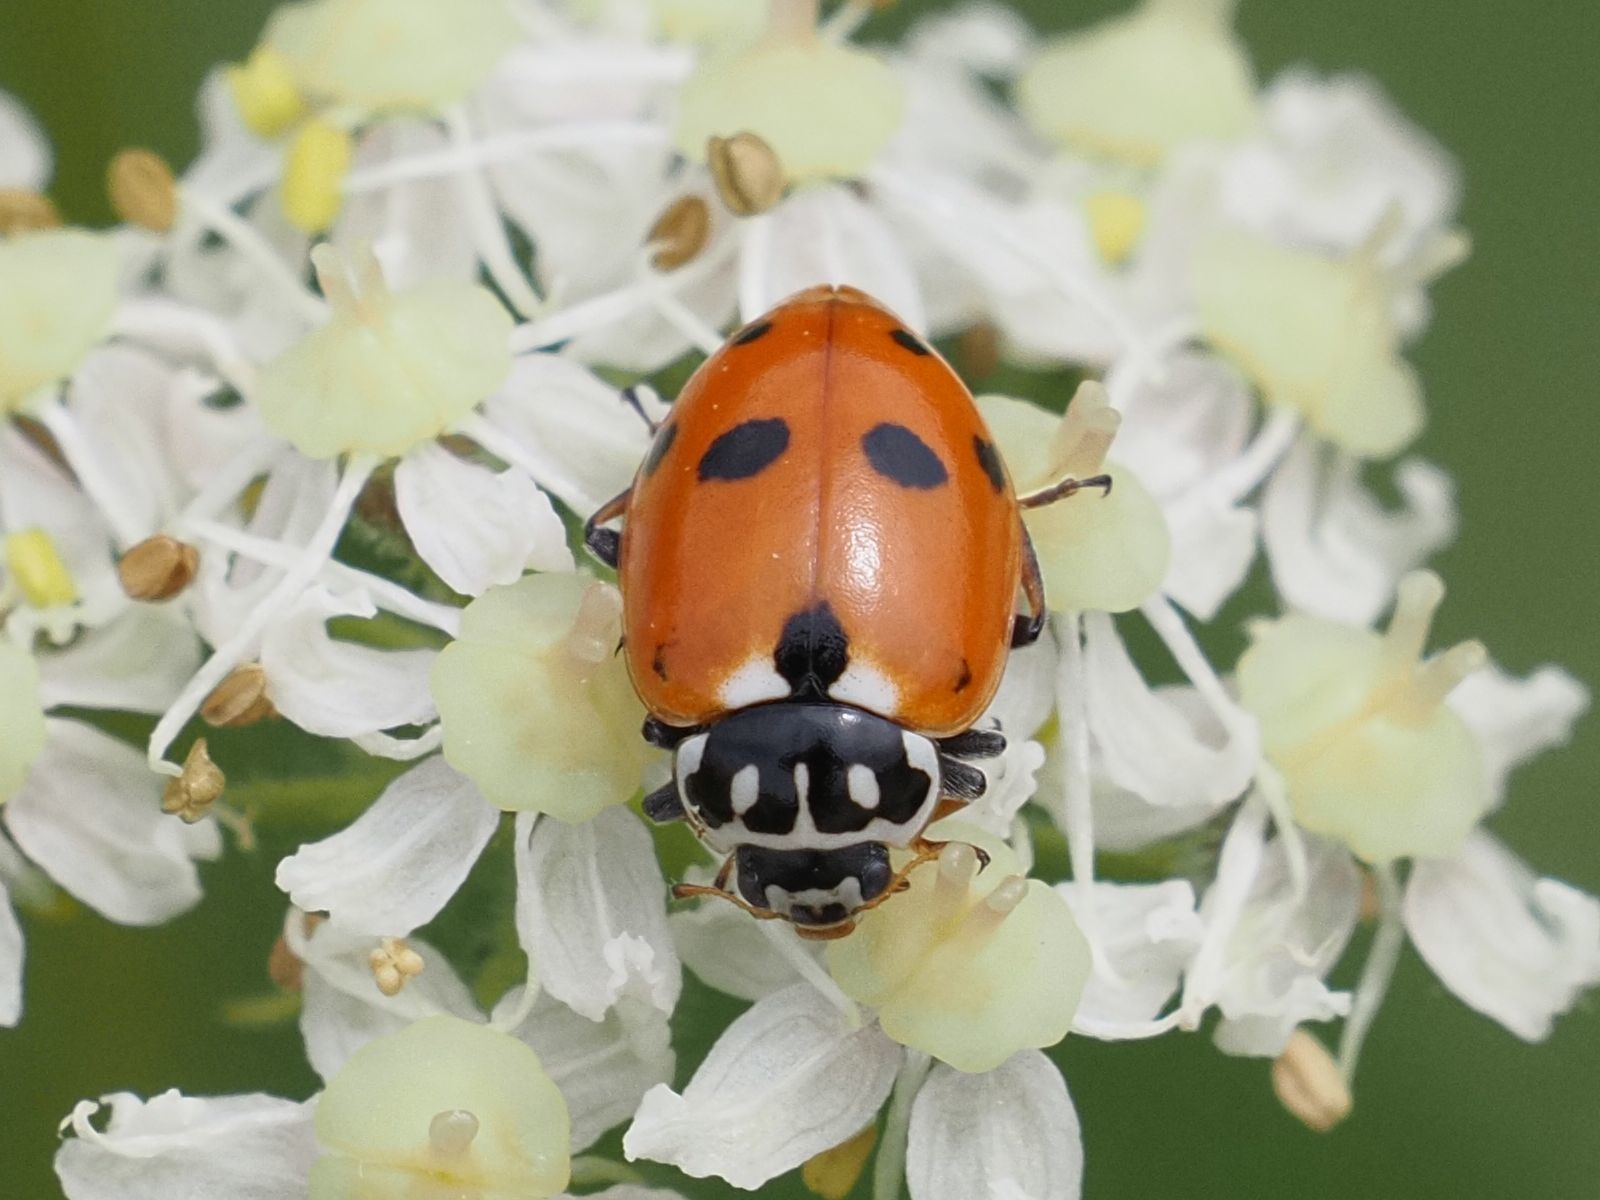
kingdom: Animalia
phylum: Arthropoda
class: Insecta
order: Coleoptera
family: Coccinellidae
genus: Hippodamia
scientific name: Hippodamia variegata
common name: Ladybird beetle
